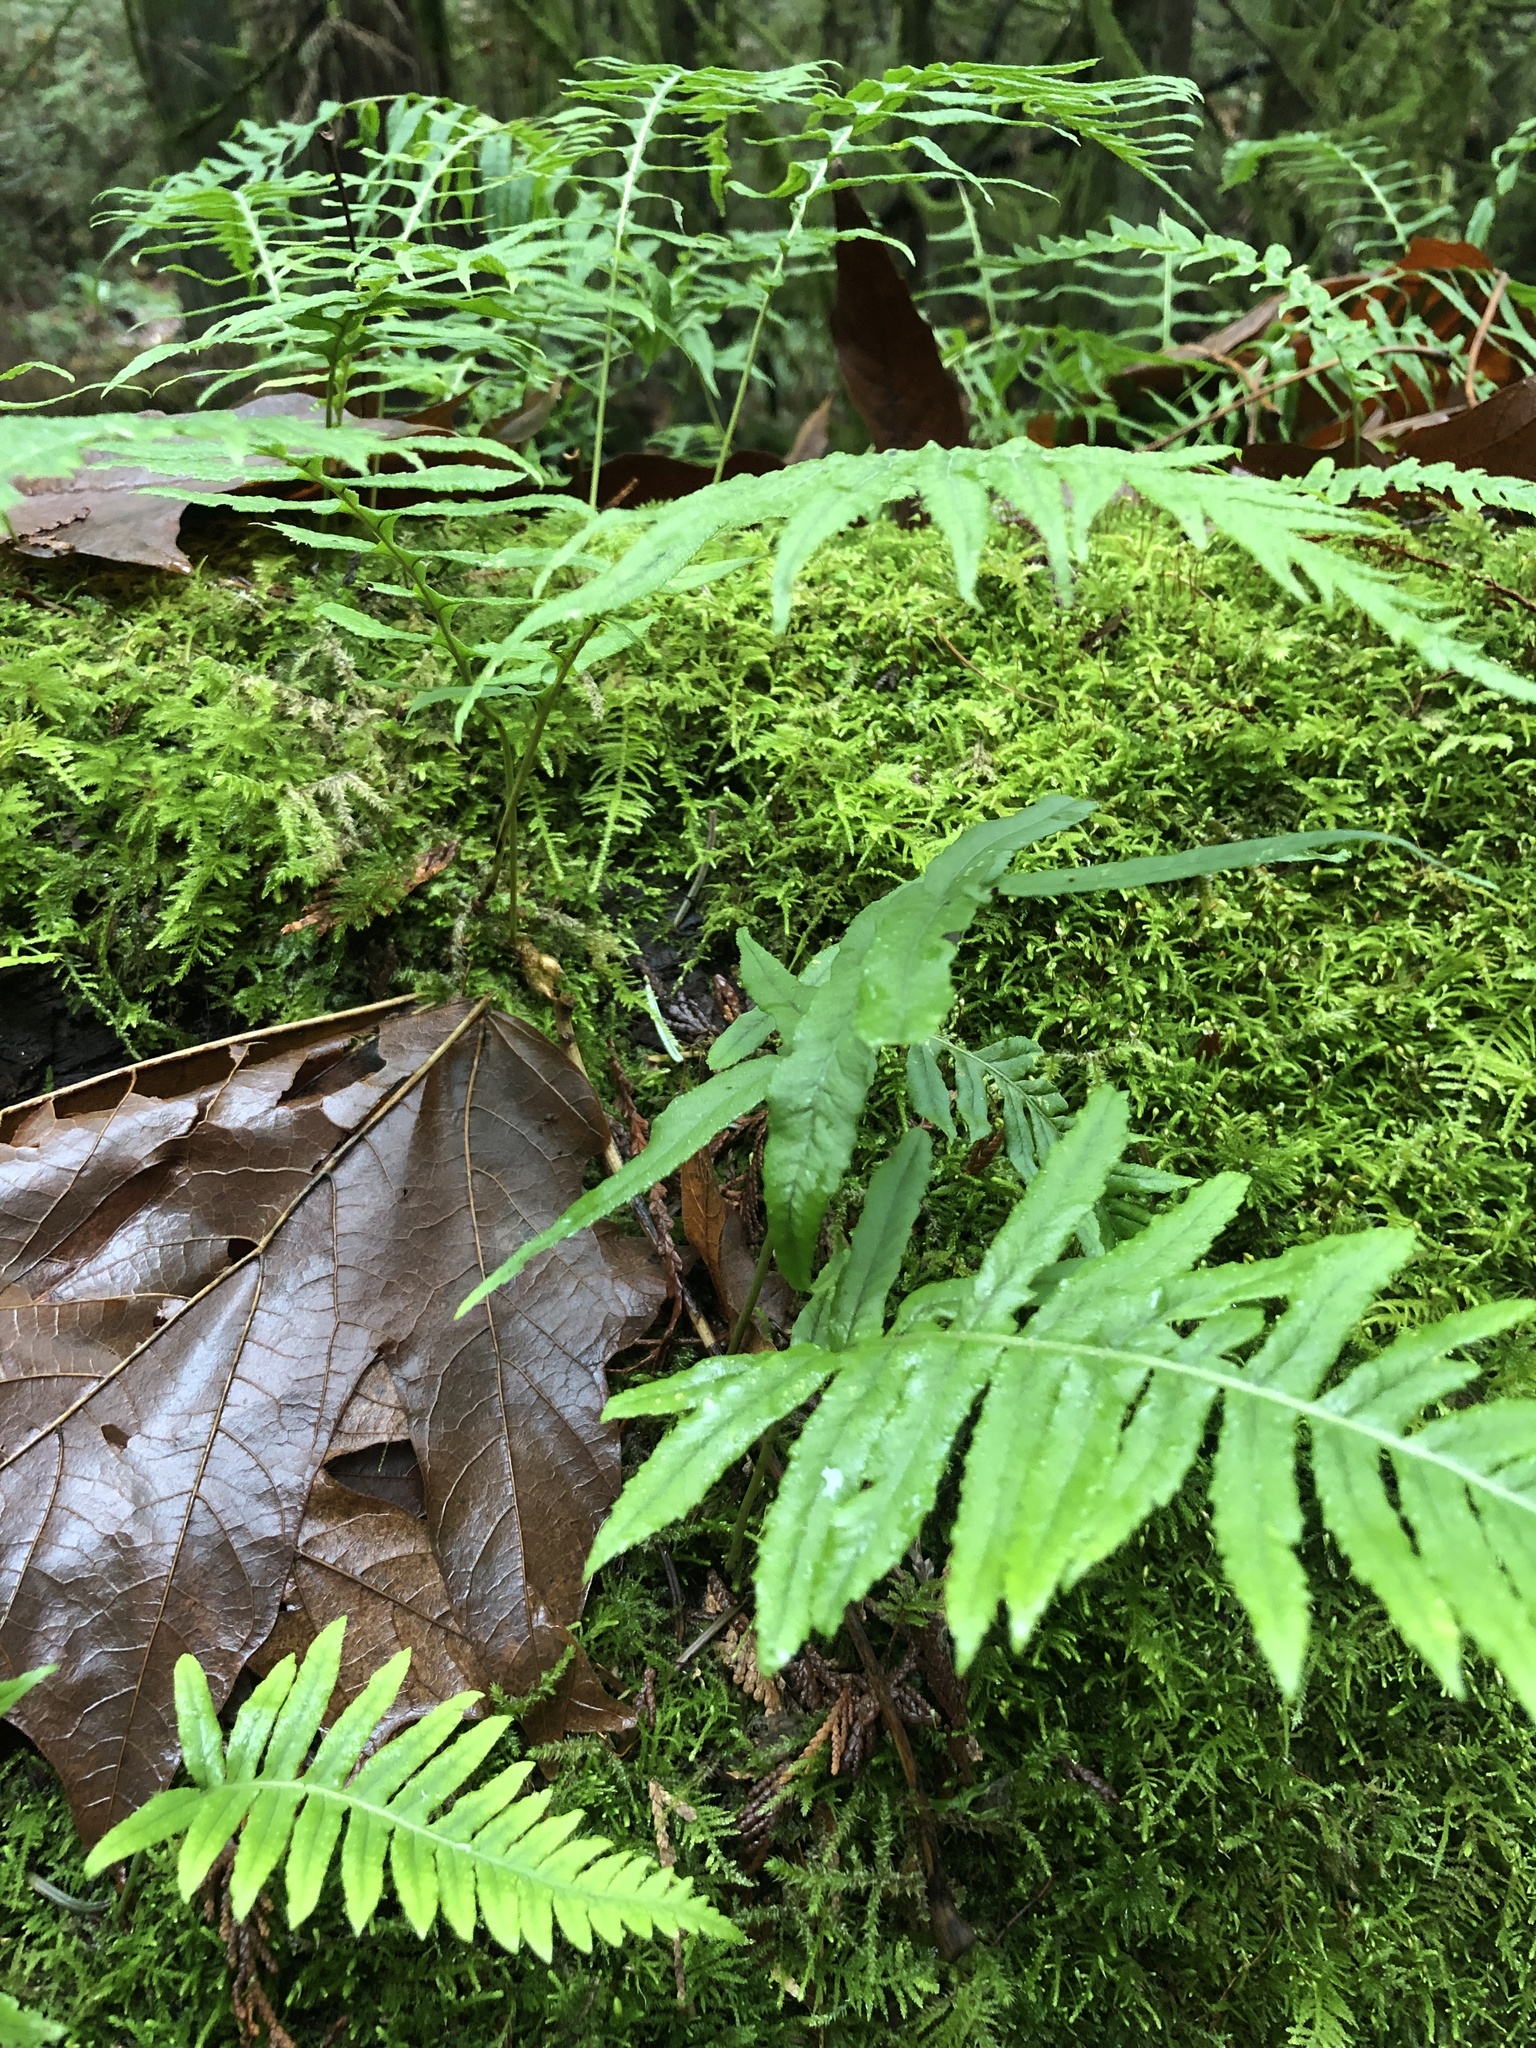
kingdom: Plantae
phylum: Tracheophyta
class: Polypodiopsida
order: Polypodiales
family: Polypodiaceae
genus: Polypodium
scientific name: Polypodium glycyrrhiza
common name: Licorice fern
